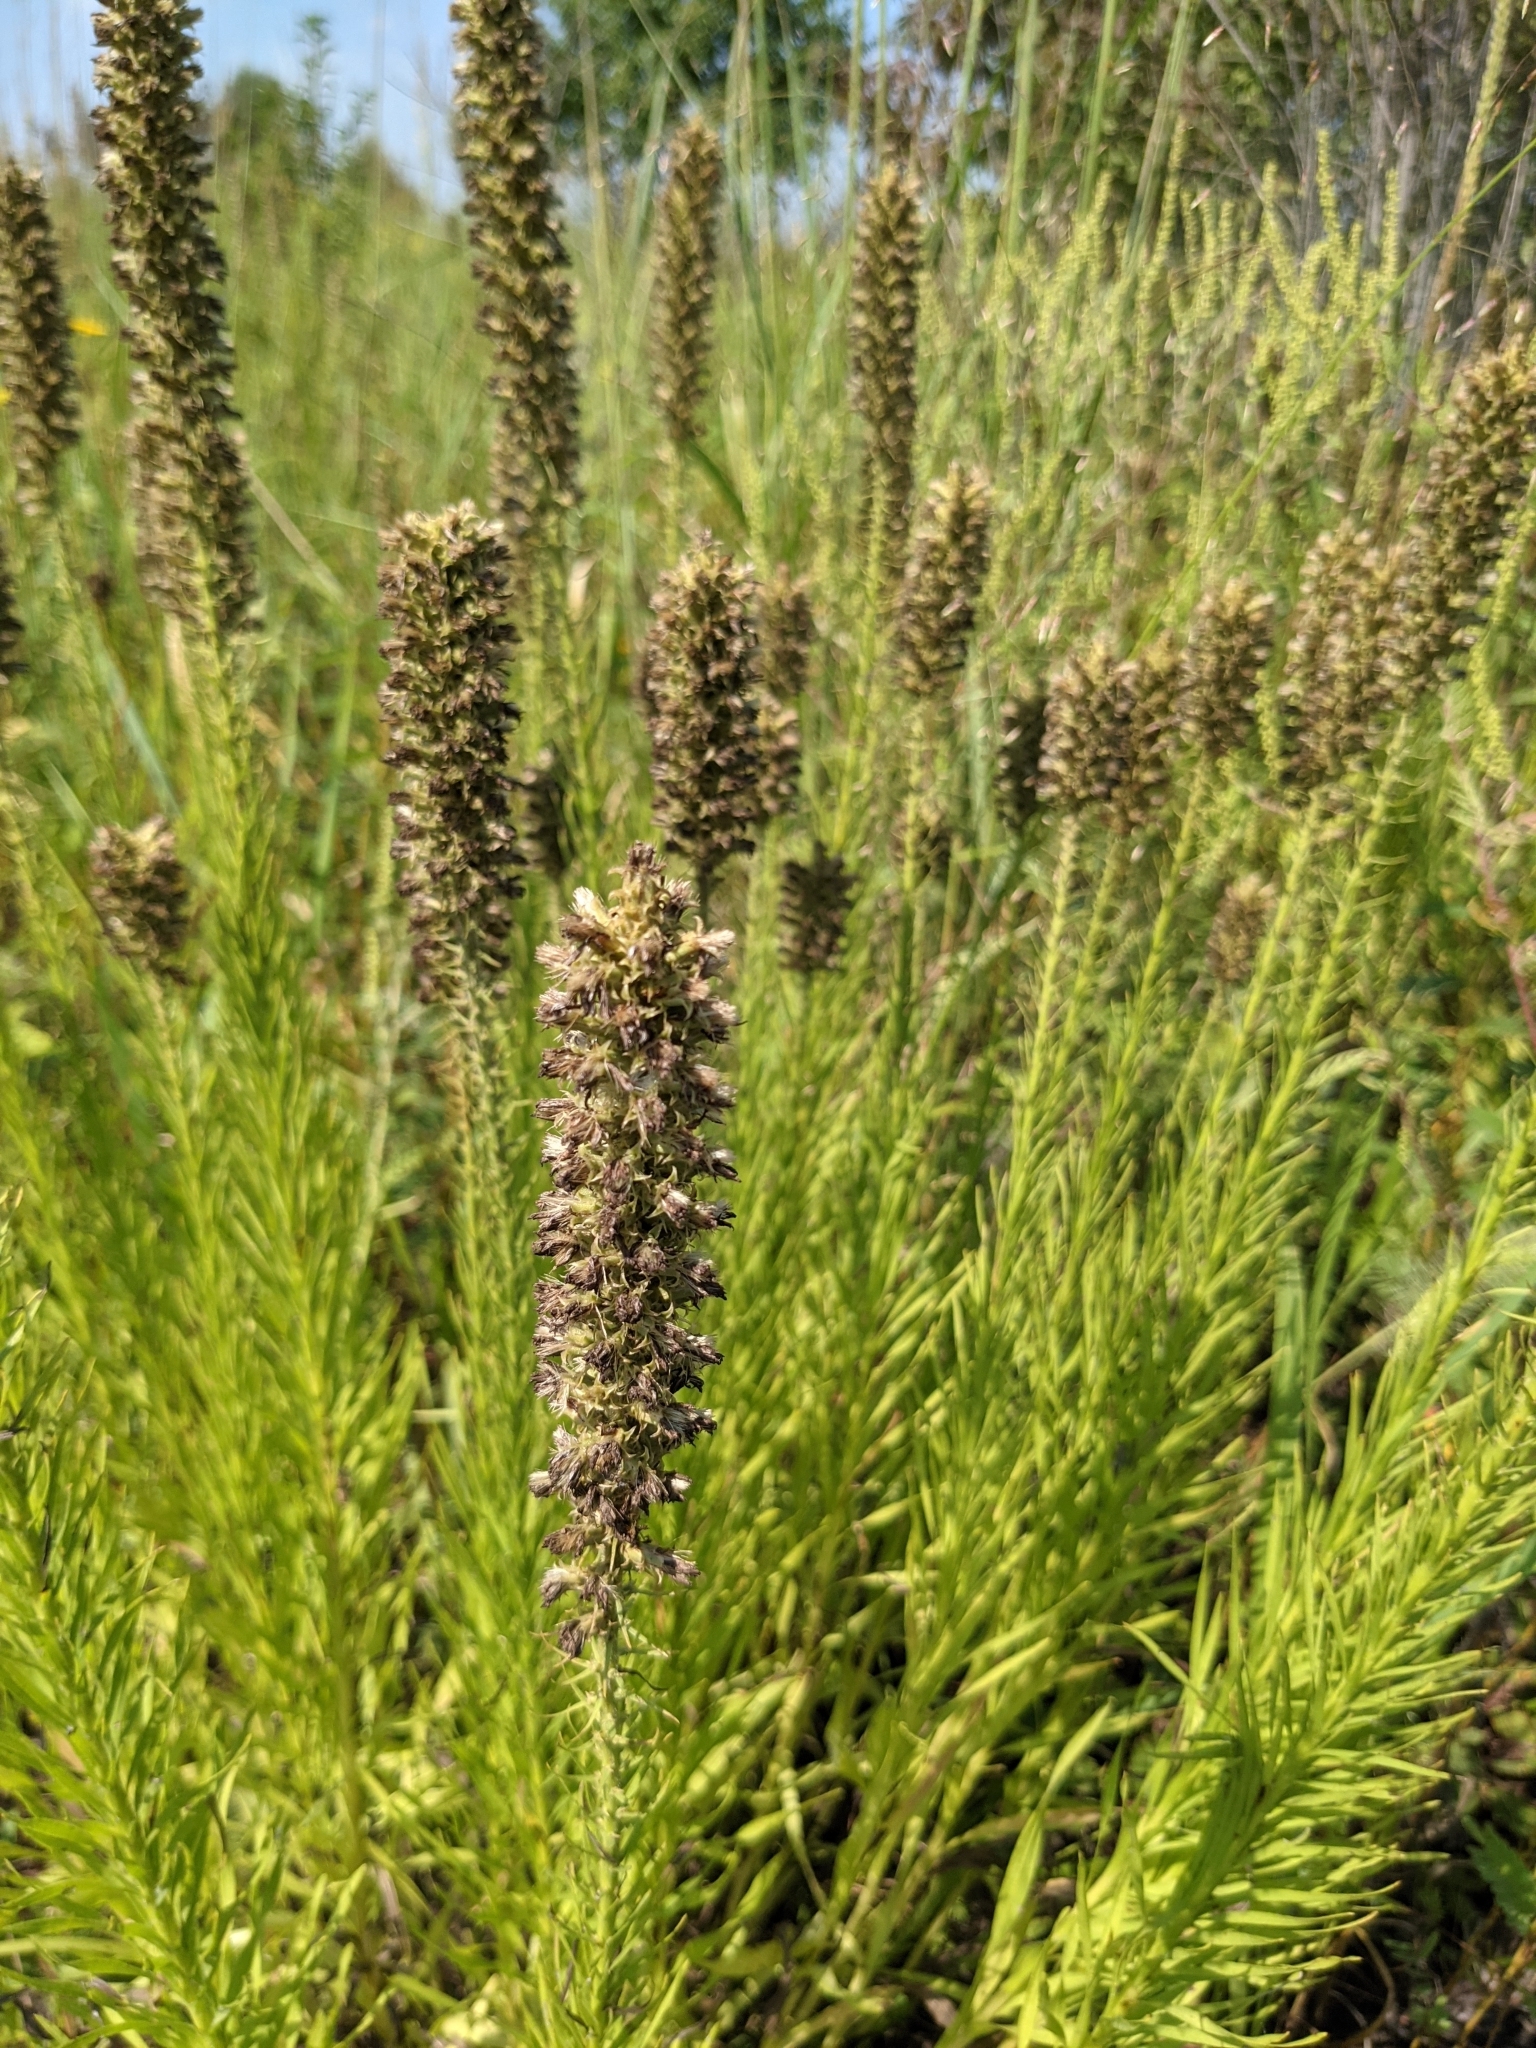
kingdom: Plantae
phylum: Tracheophyta
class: Magnoliopsida
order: Asterales
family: Asteraceae
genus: Liatris
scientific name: Liatris pycnostachya
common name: Cattail gayfeather
